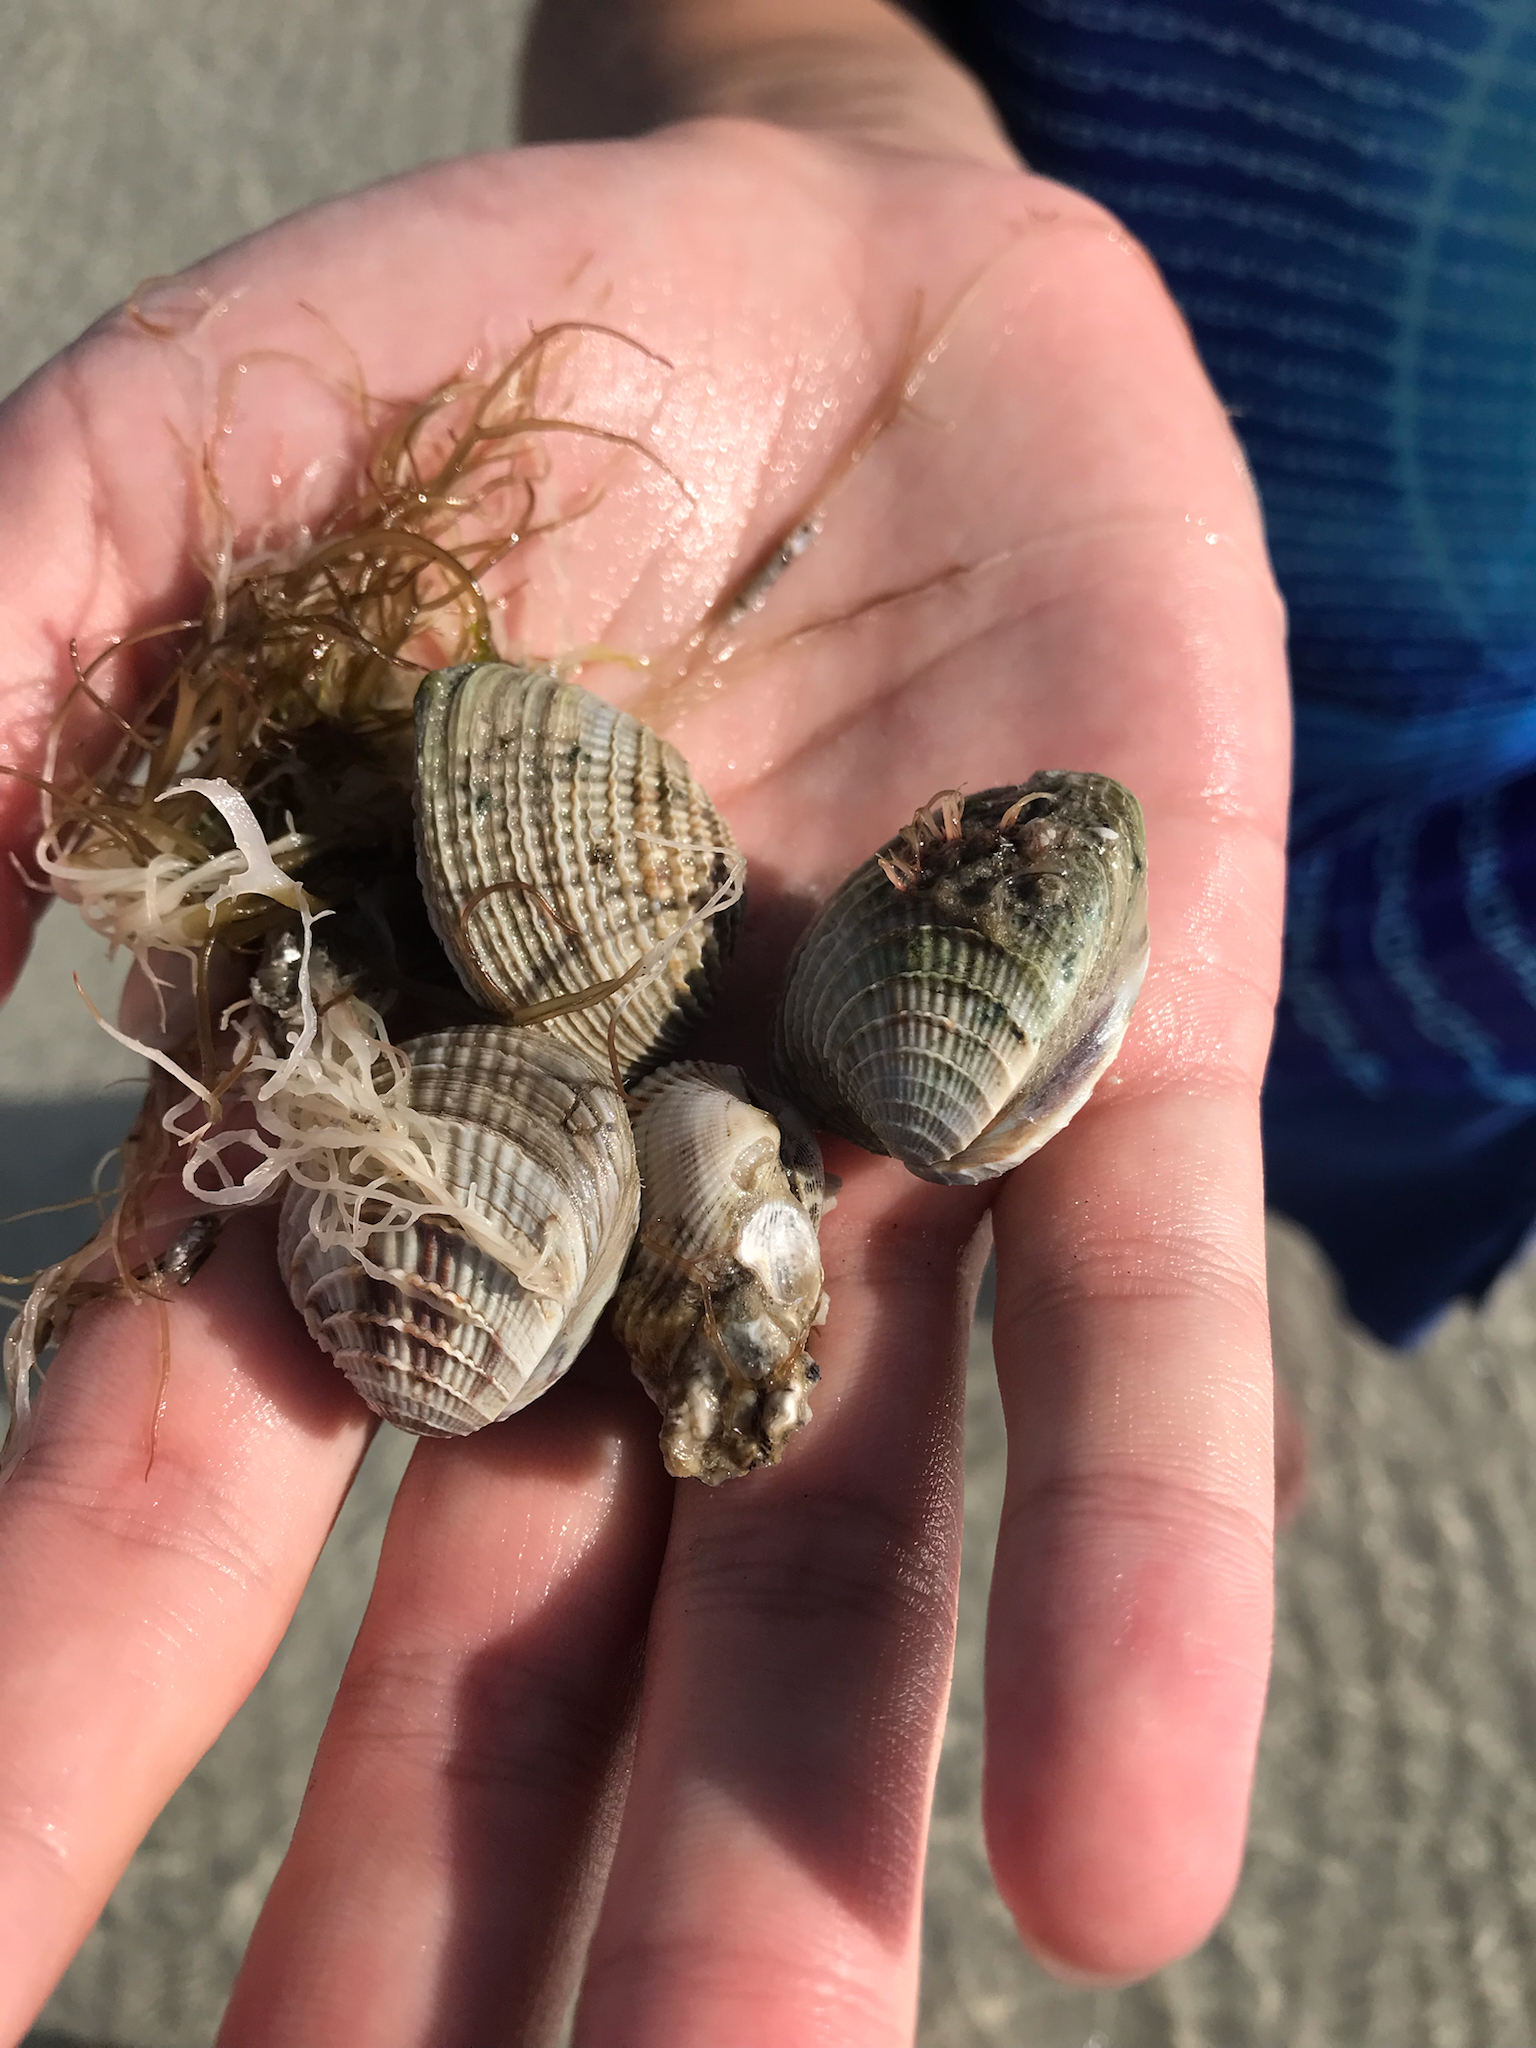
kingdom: Animalia
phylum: Mollusca
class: Bivalvia
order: Venerida
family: Veneridae
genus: Chione
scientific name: Chione elevata
